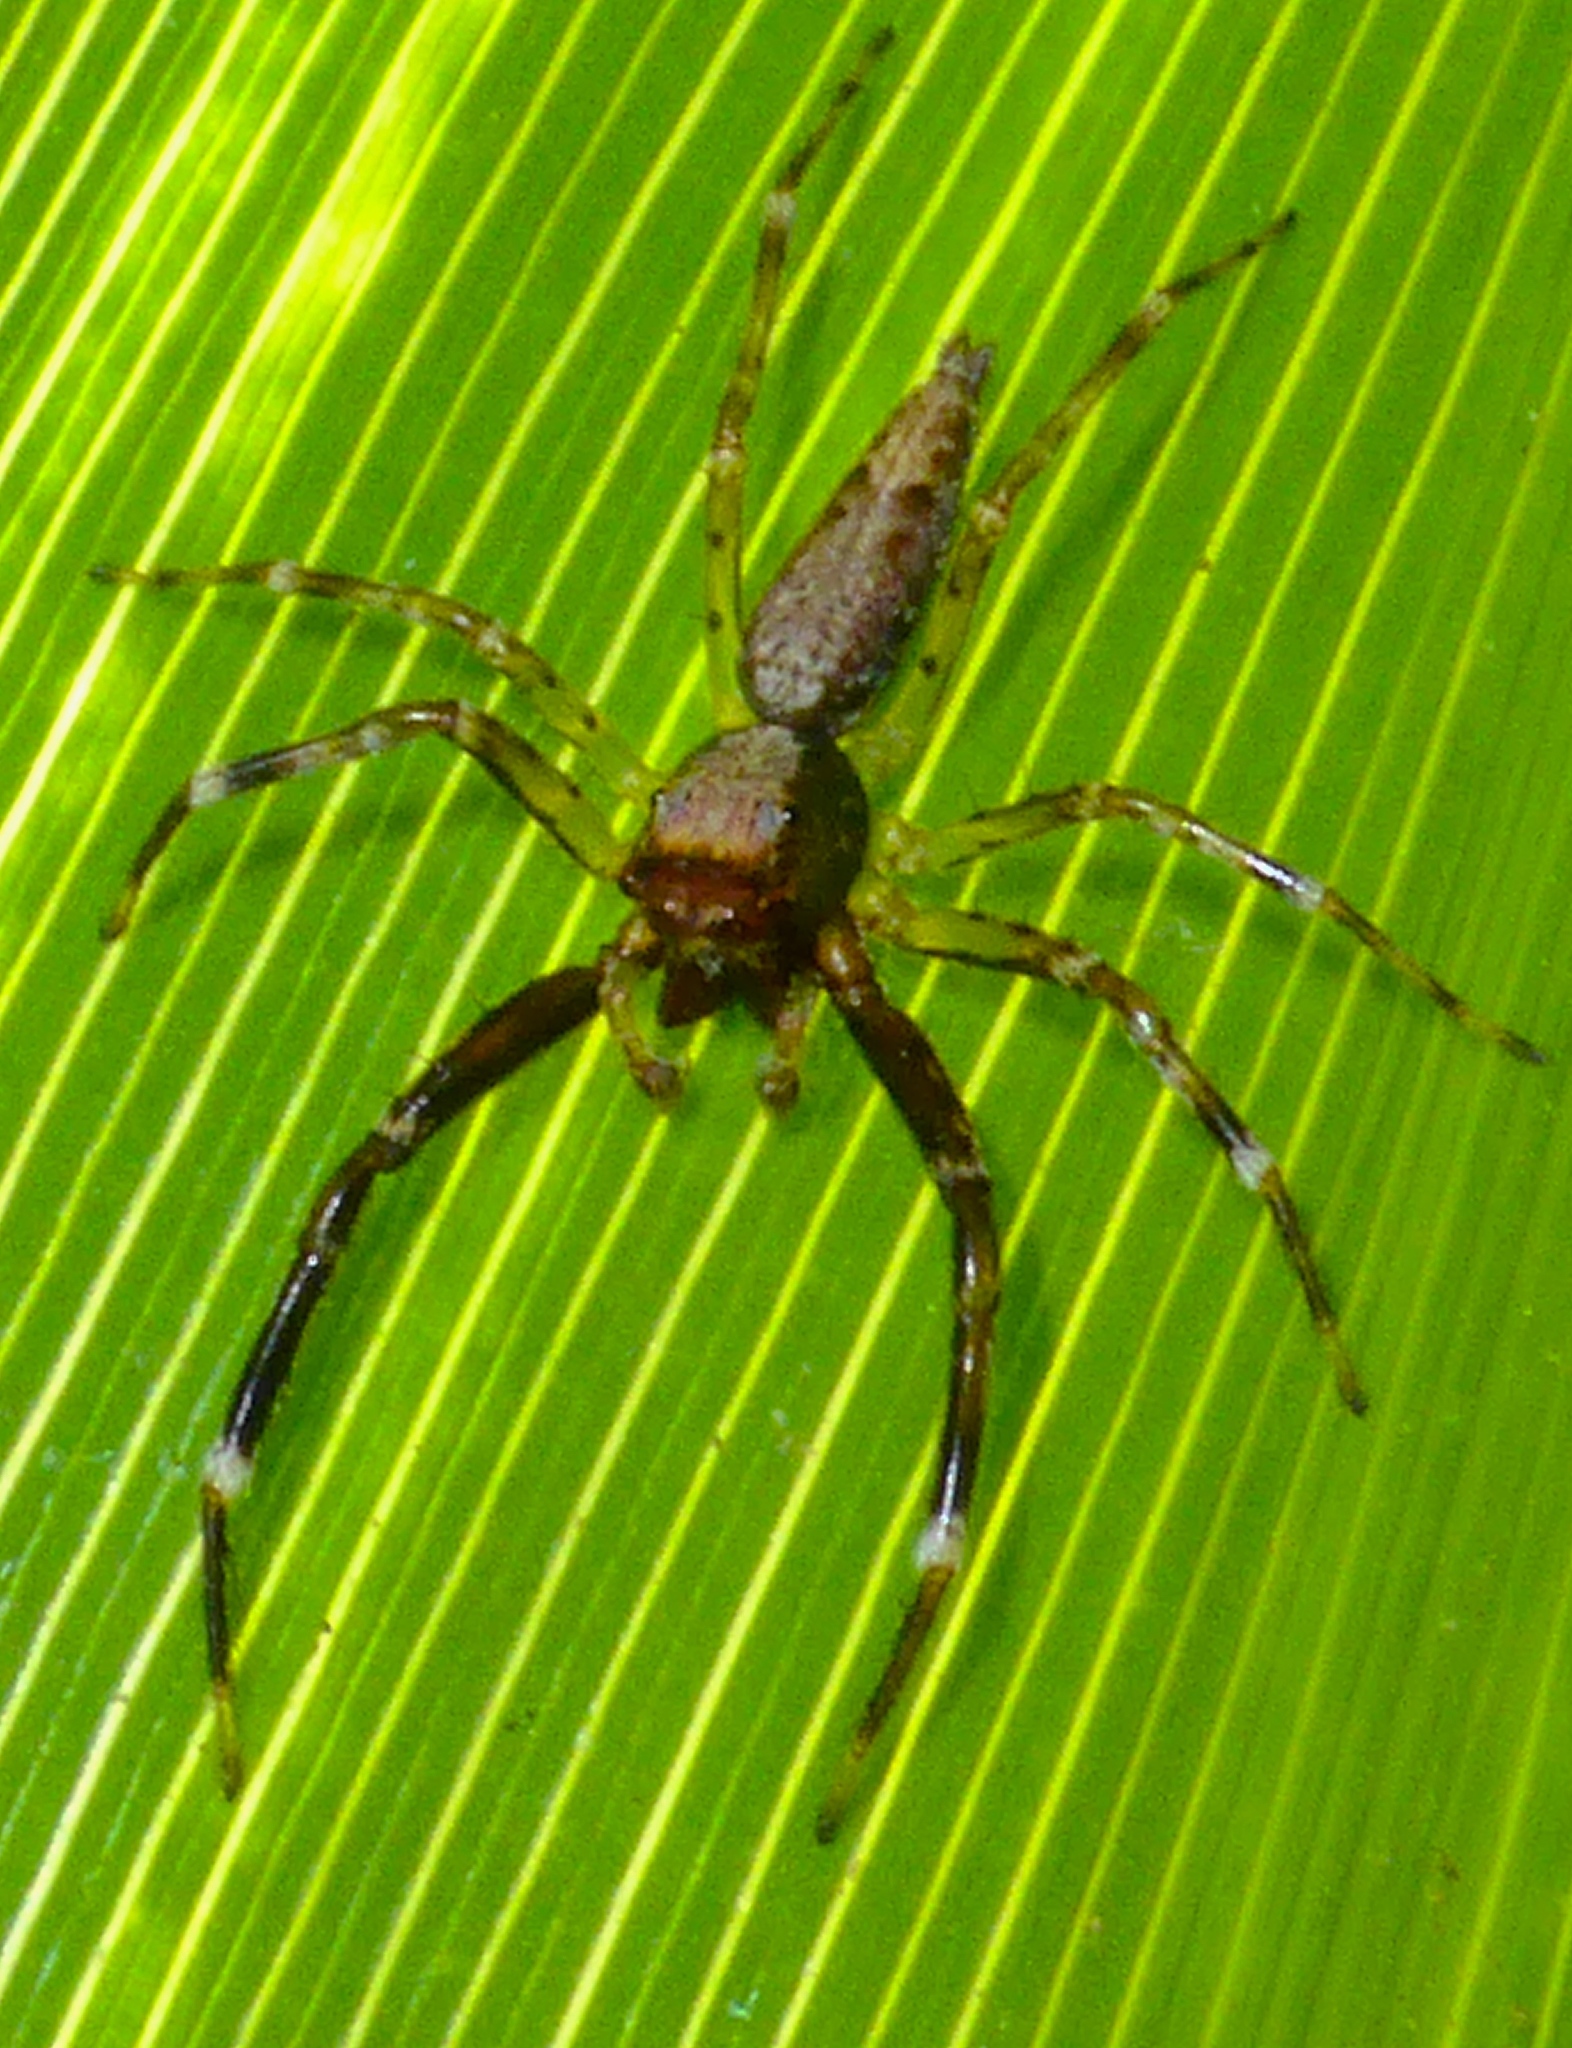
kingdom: Animalia
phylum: Arthropoda
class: Arachnida
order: Araneae
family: Salticidae
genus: Helpis
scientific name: Helpis minitabunda
